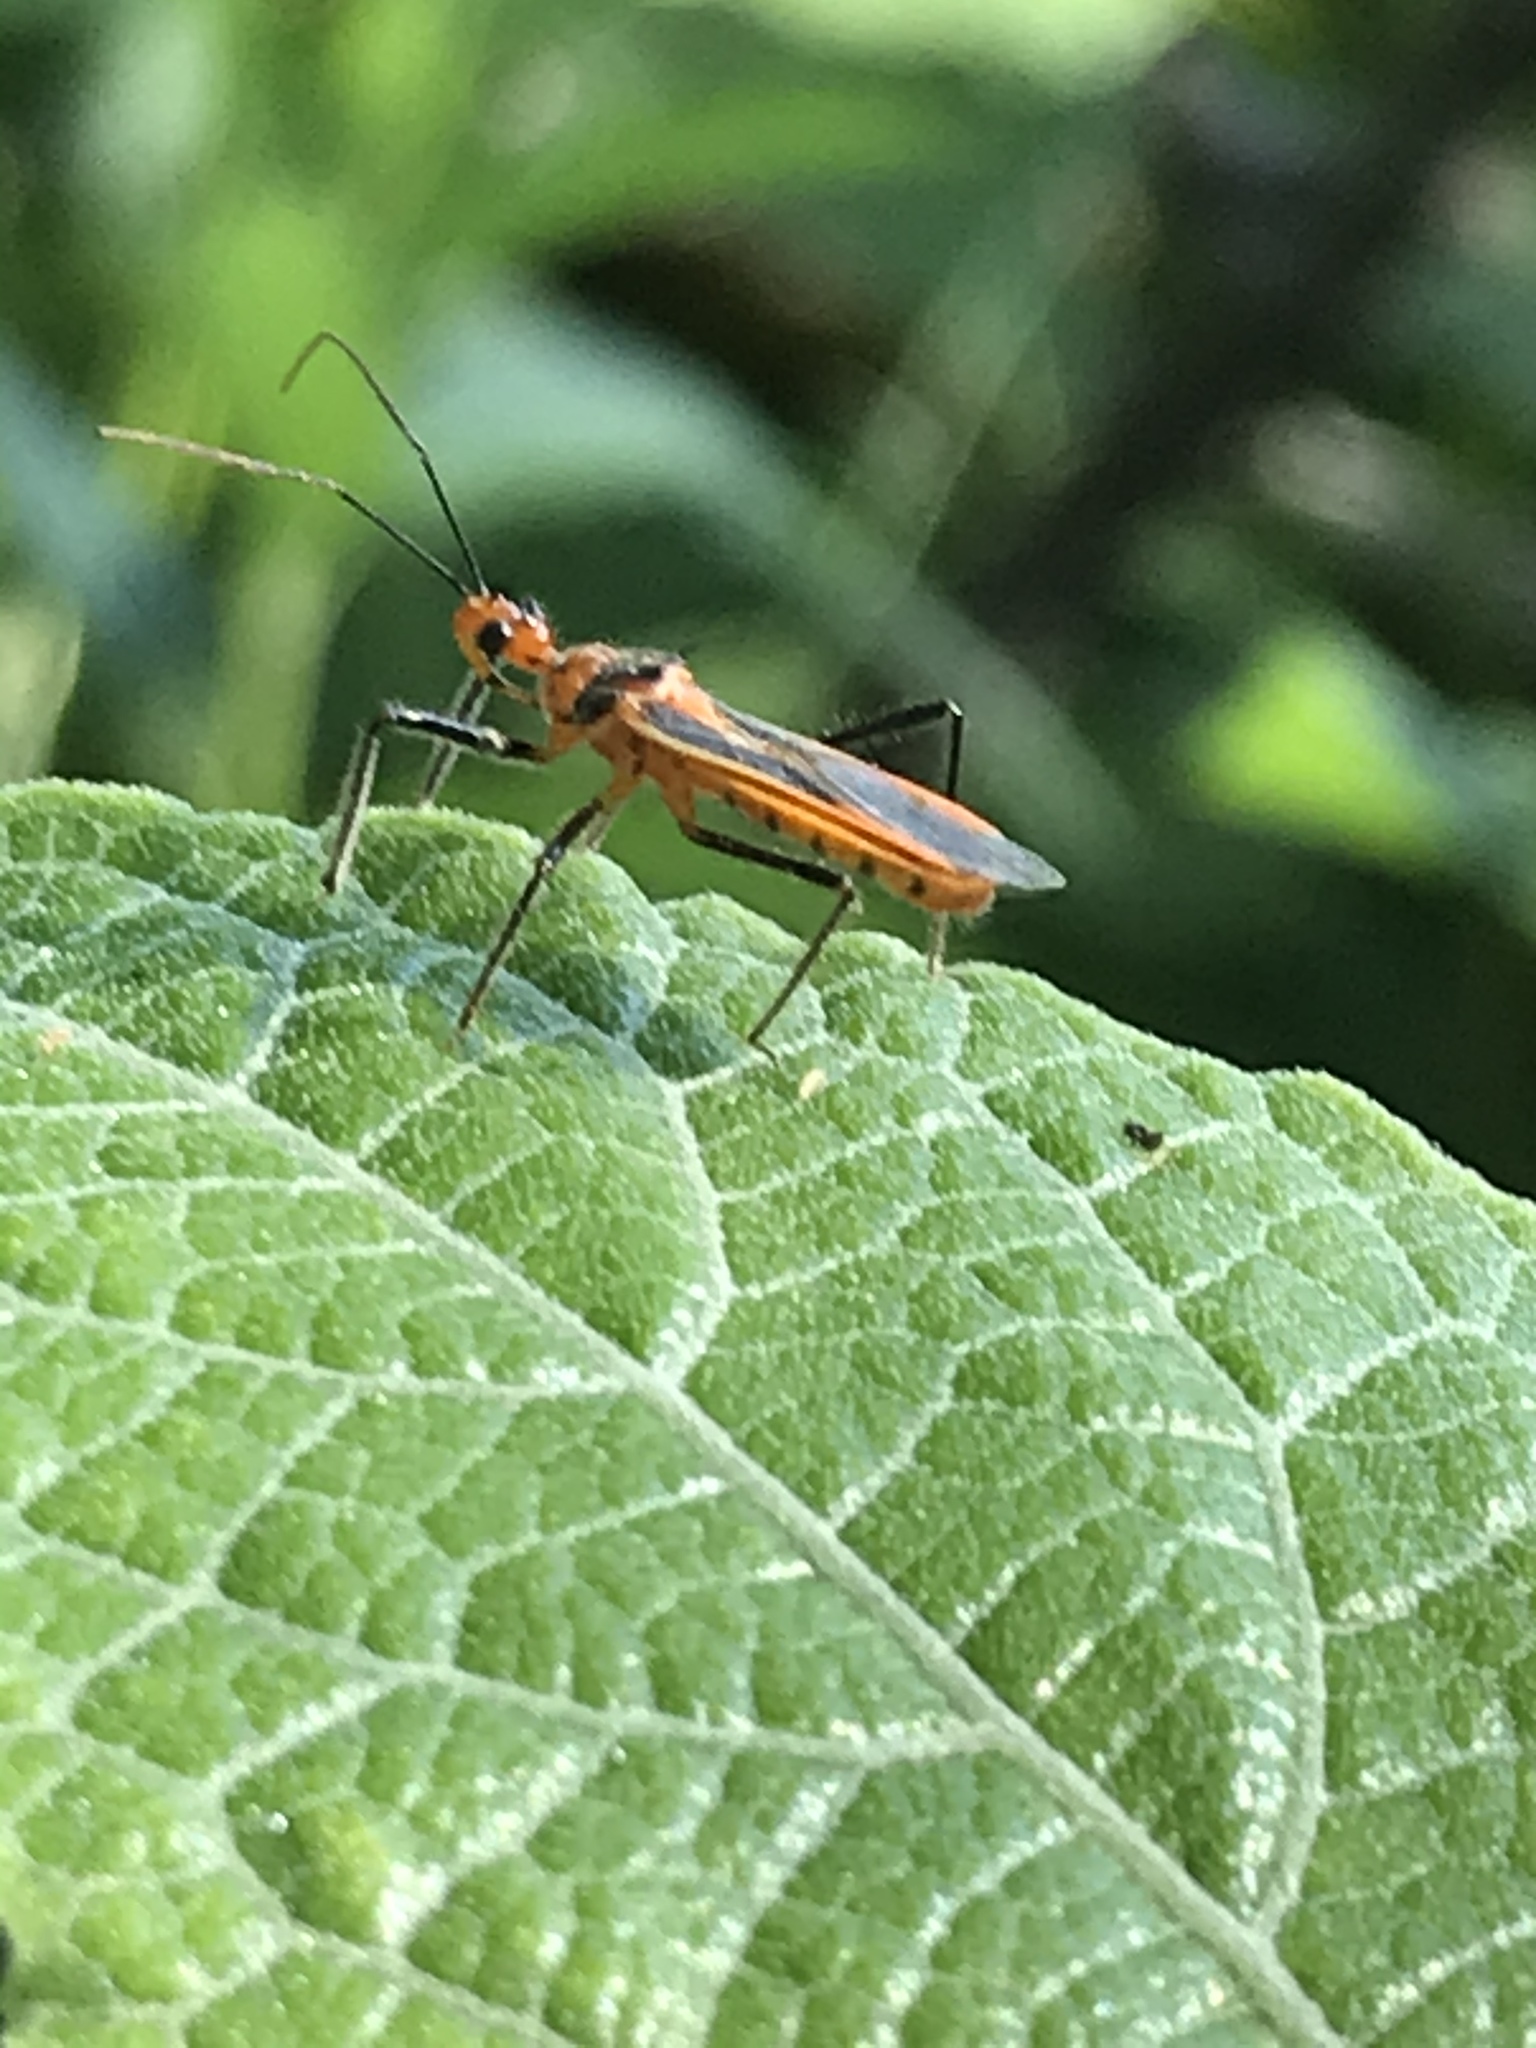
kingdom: Animalia
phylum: Arthropoda
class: Insecta
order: Hemiptera
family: Reduviidae
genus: Repipta
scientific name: Repipta taurus
